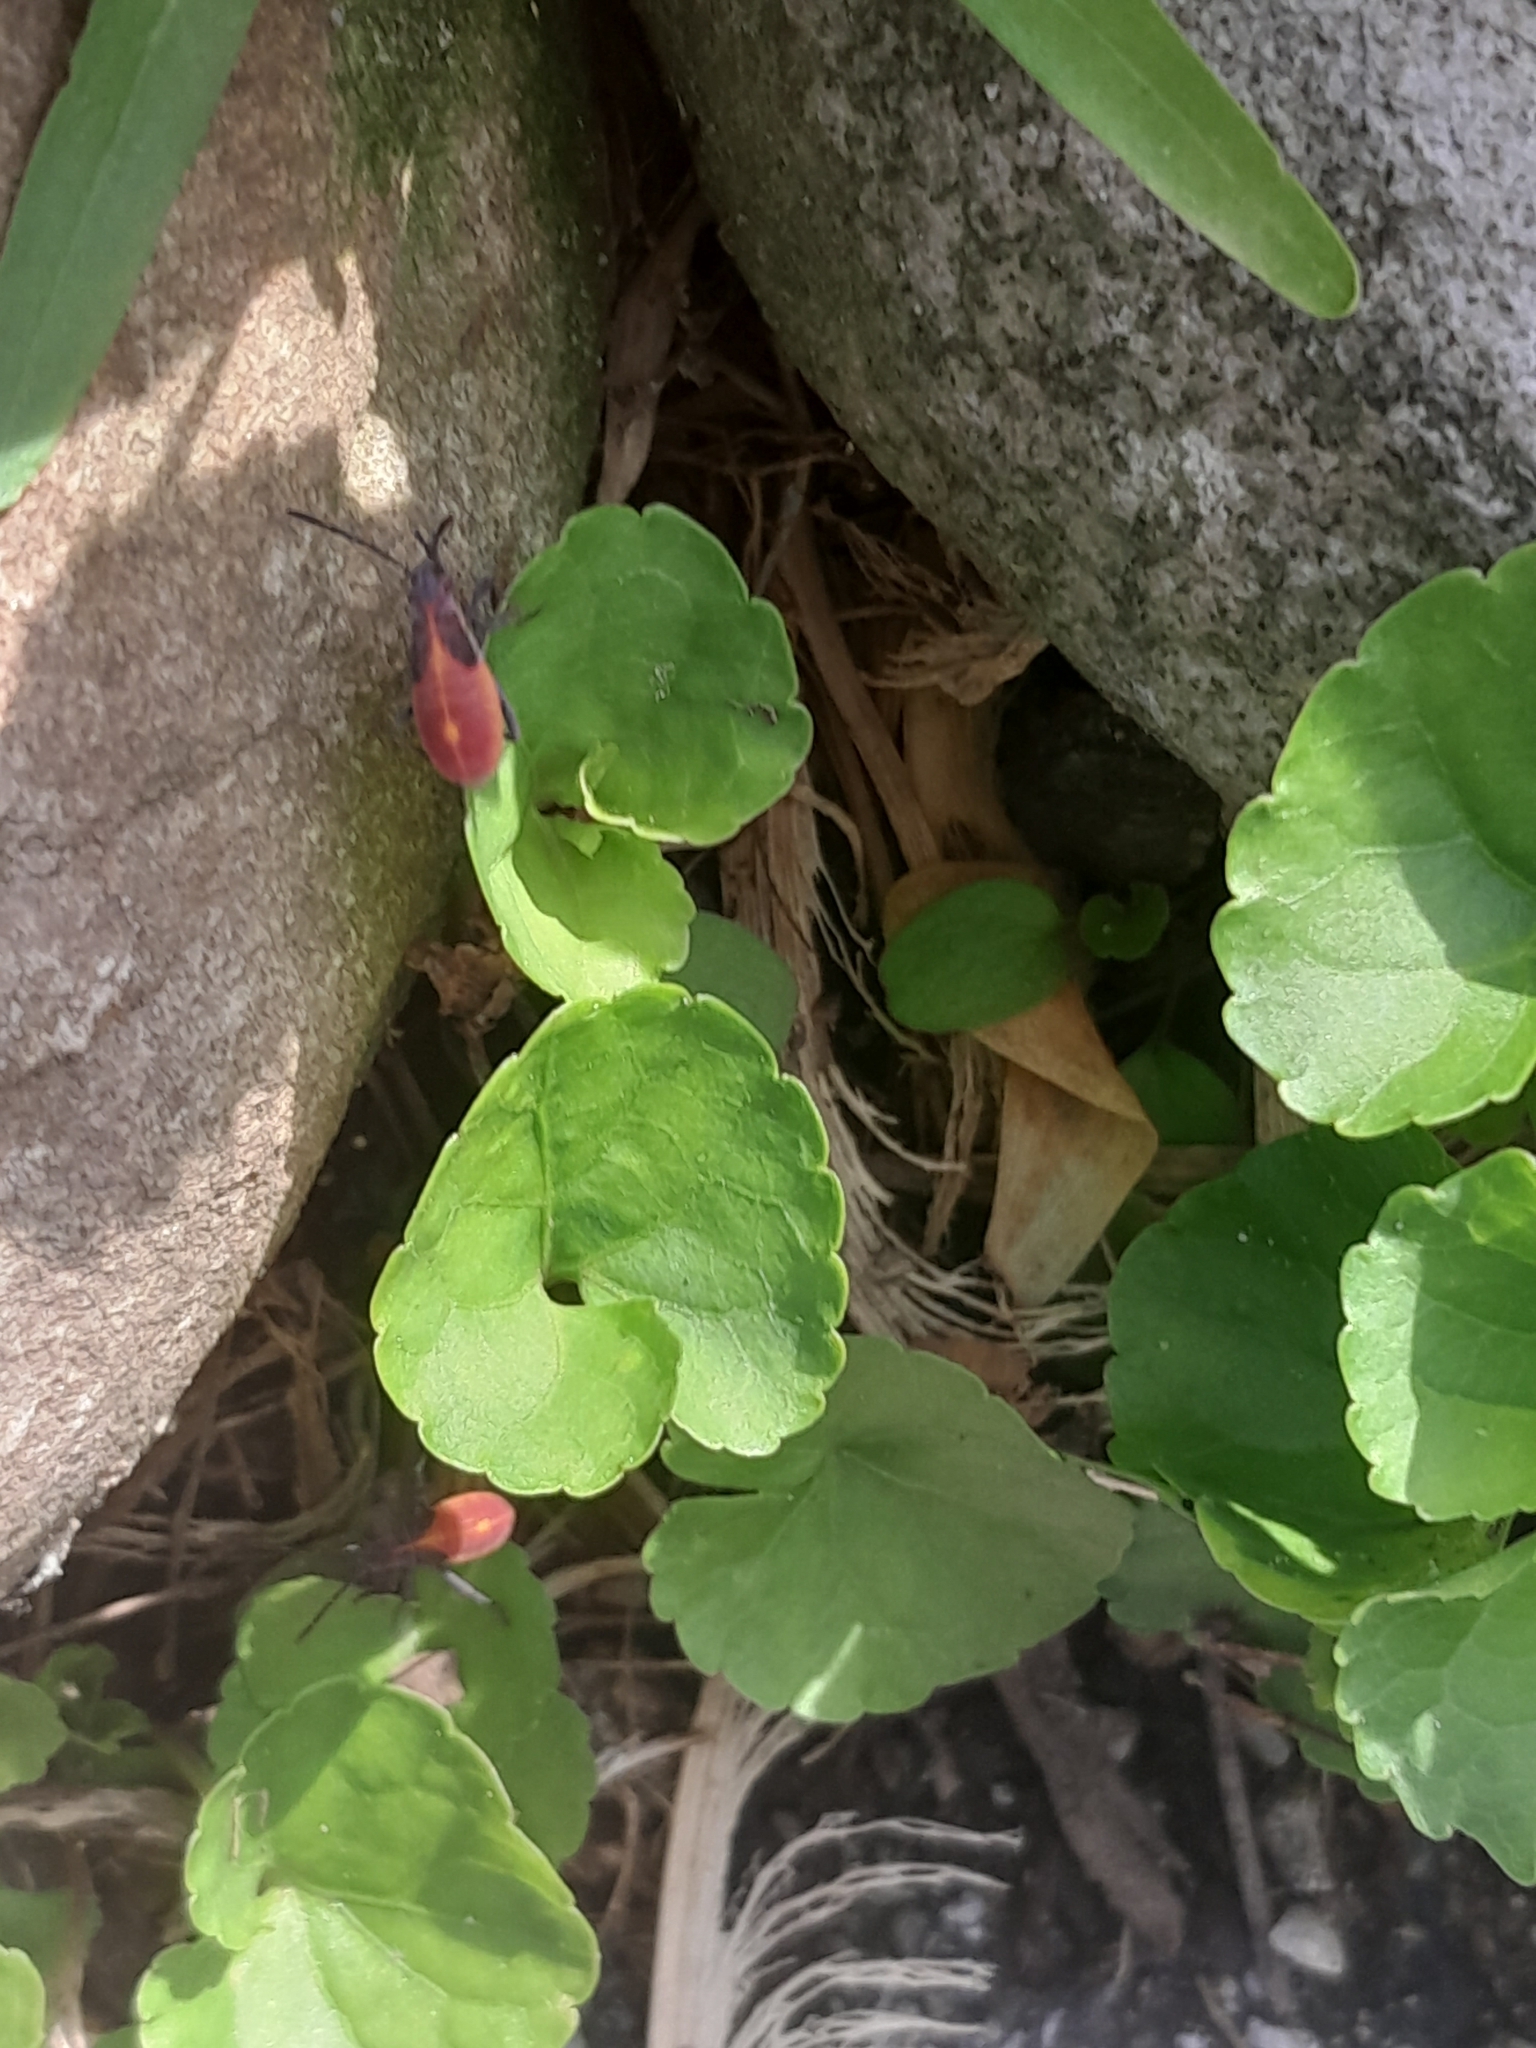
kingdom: Animalia
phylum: Arthropoda
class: Insecta
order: Hemiptera
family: Rhopalidae
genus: Boisea
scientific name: Boisea trivittata
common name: Boxelder bug
